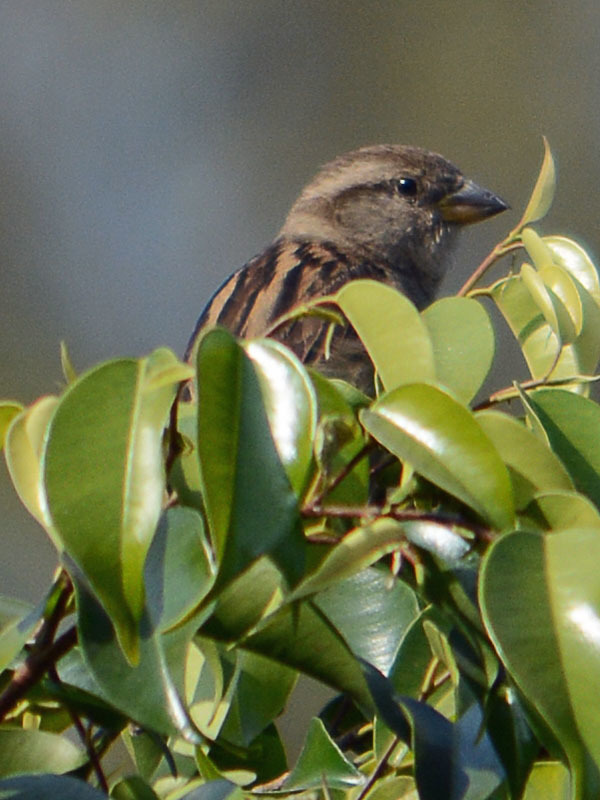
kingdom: Animalia
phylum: Chordata
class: Aves
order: Passeriformes
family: Passeridae
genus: Passer
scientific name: Passer domesticus
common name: House sparrow
